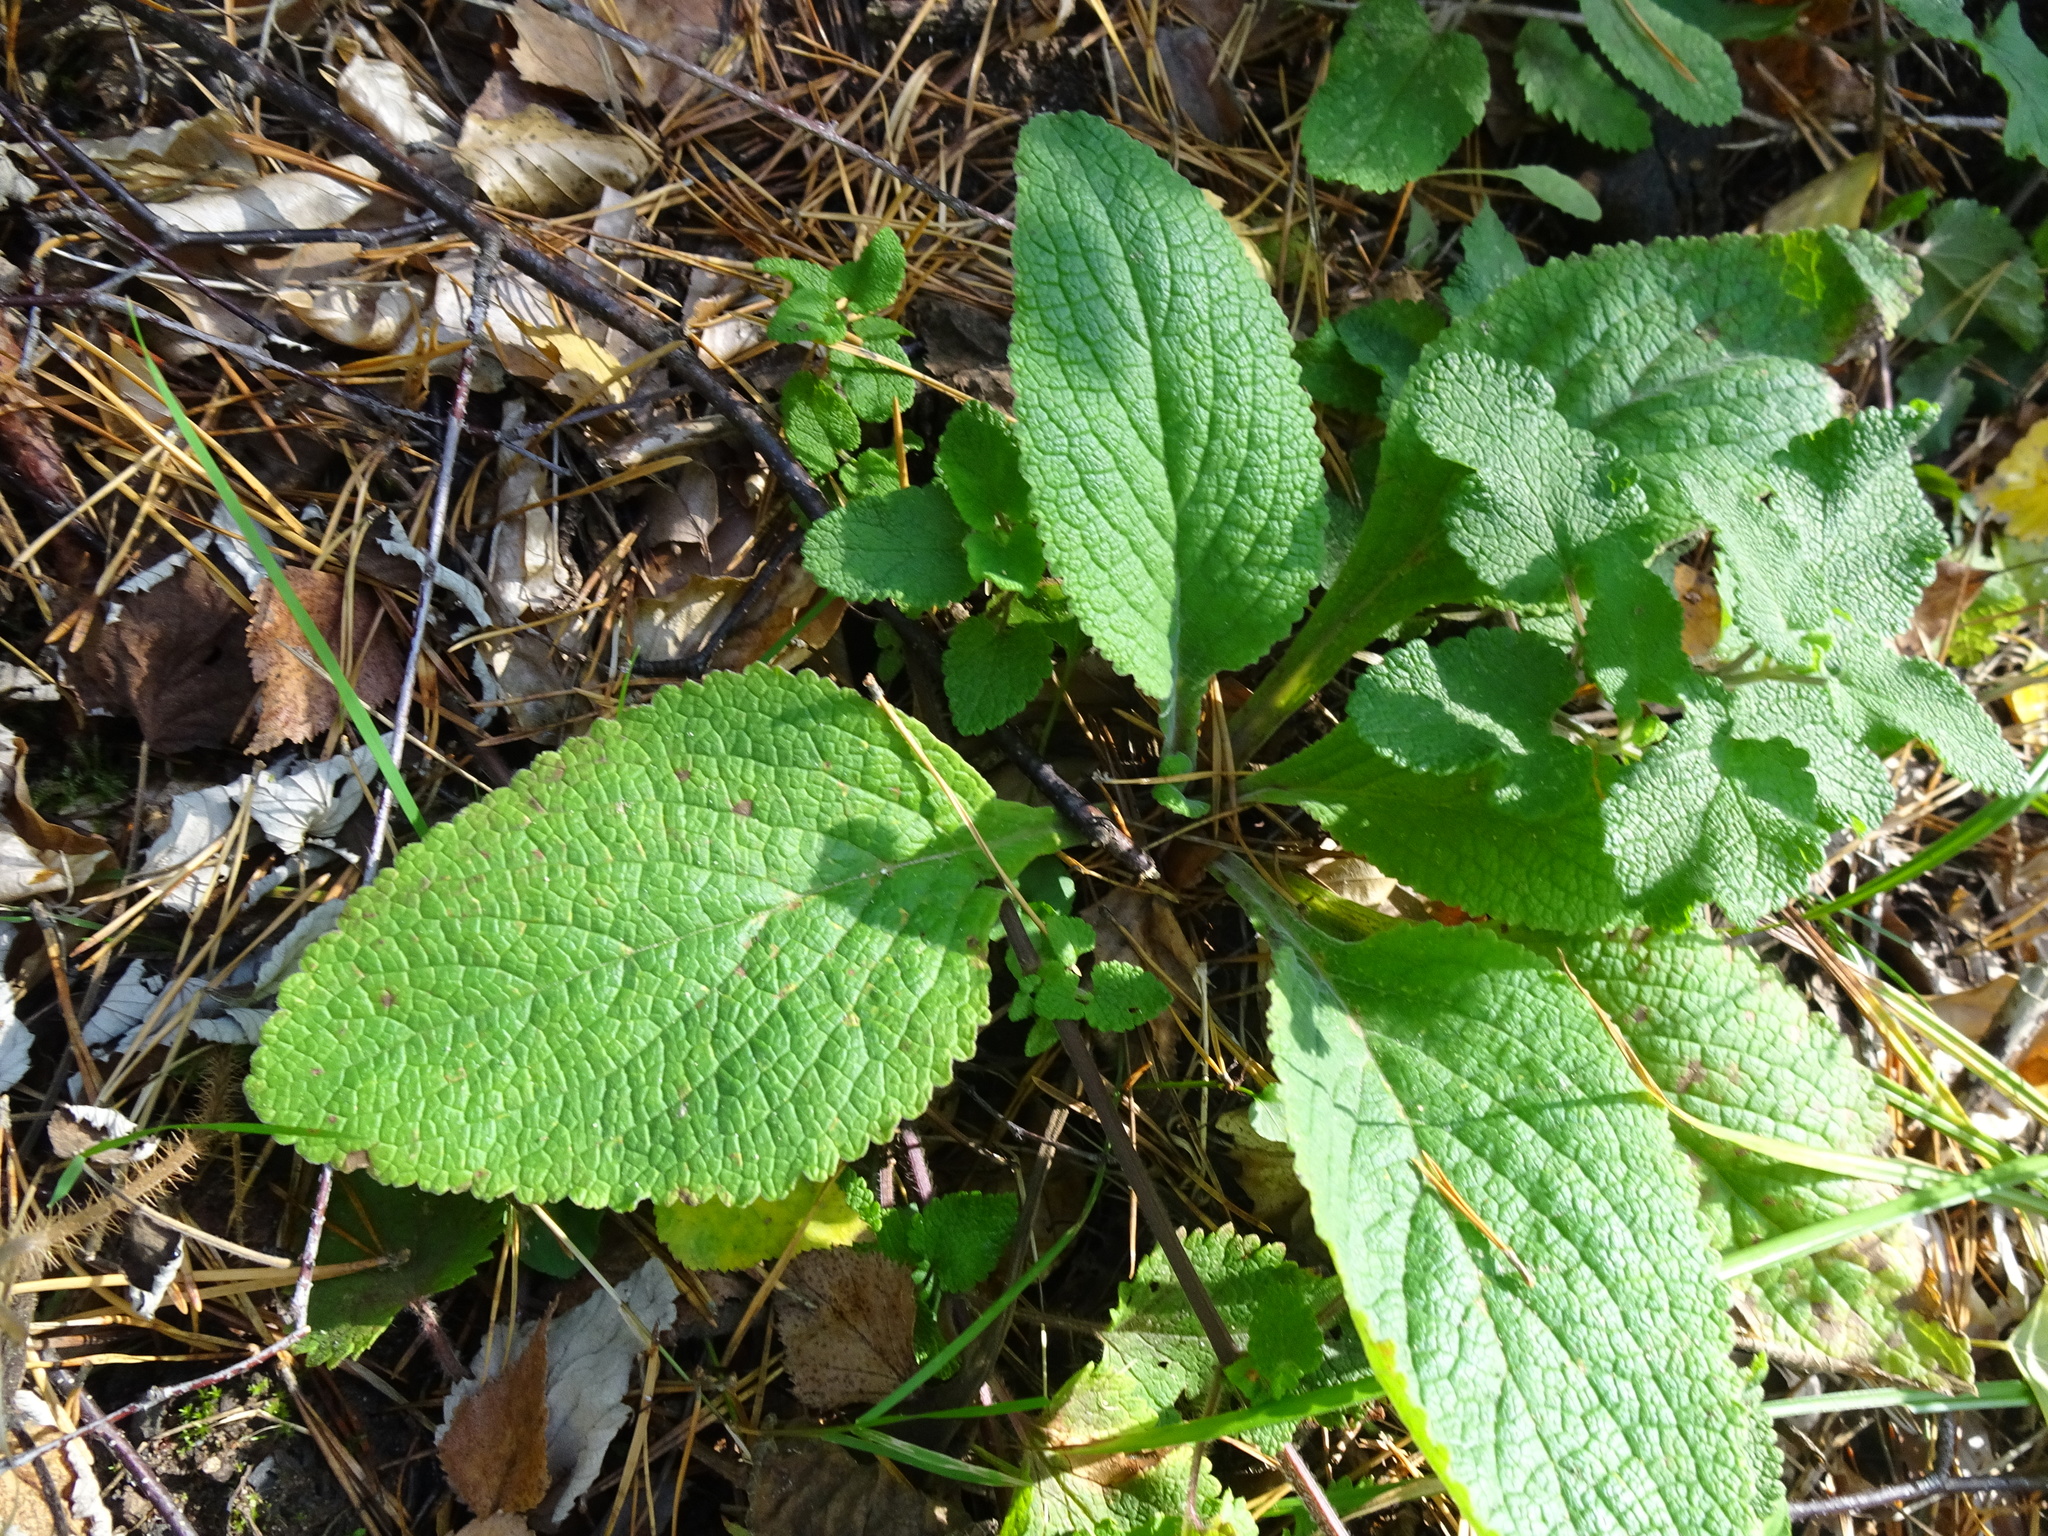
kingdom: Plantae
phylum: Tracheophyta
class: Magnoliopsida
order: Lamiales
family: Plantaginaceae
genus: Digitalis
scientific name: Digitalis purpurea
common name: Foxglove
